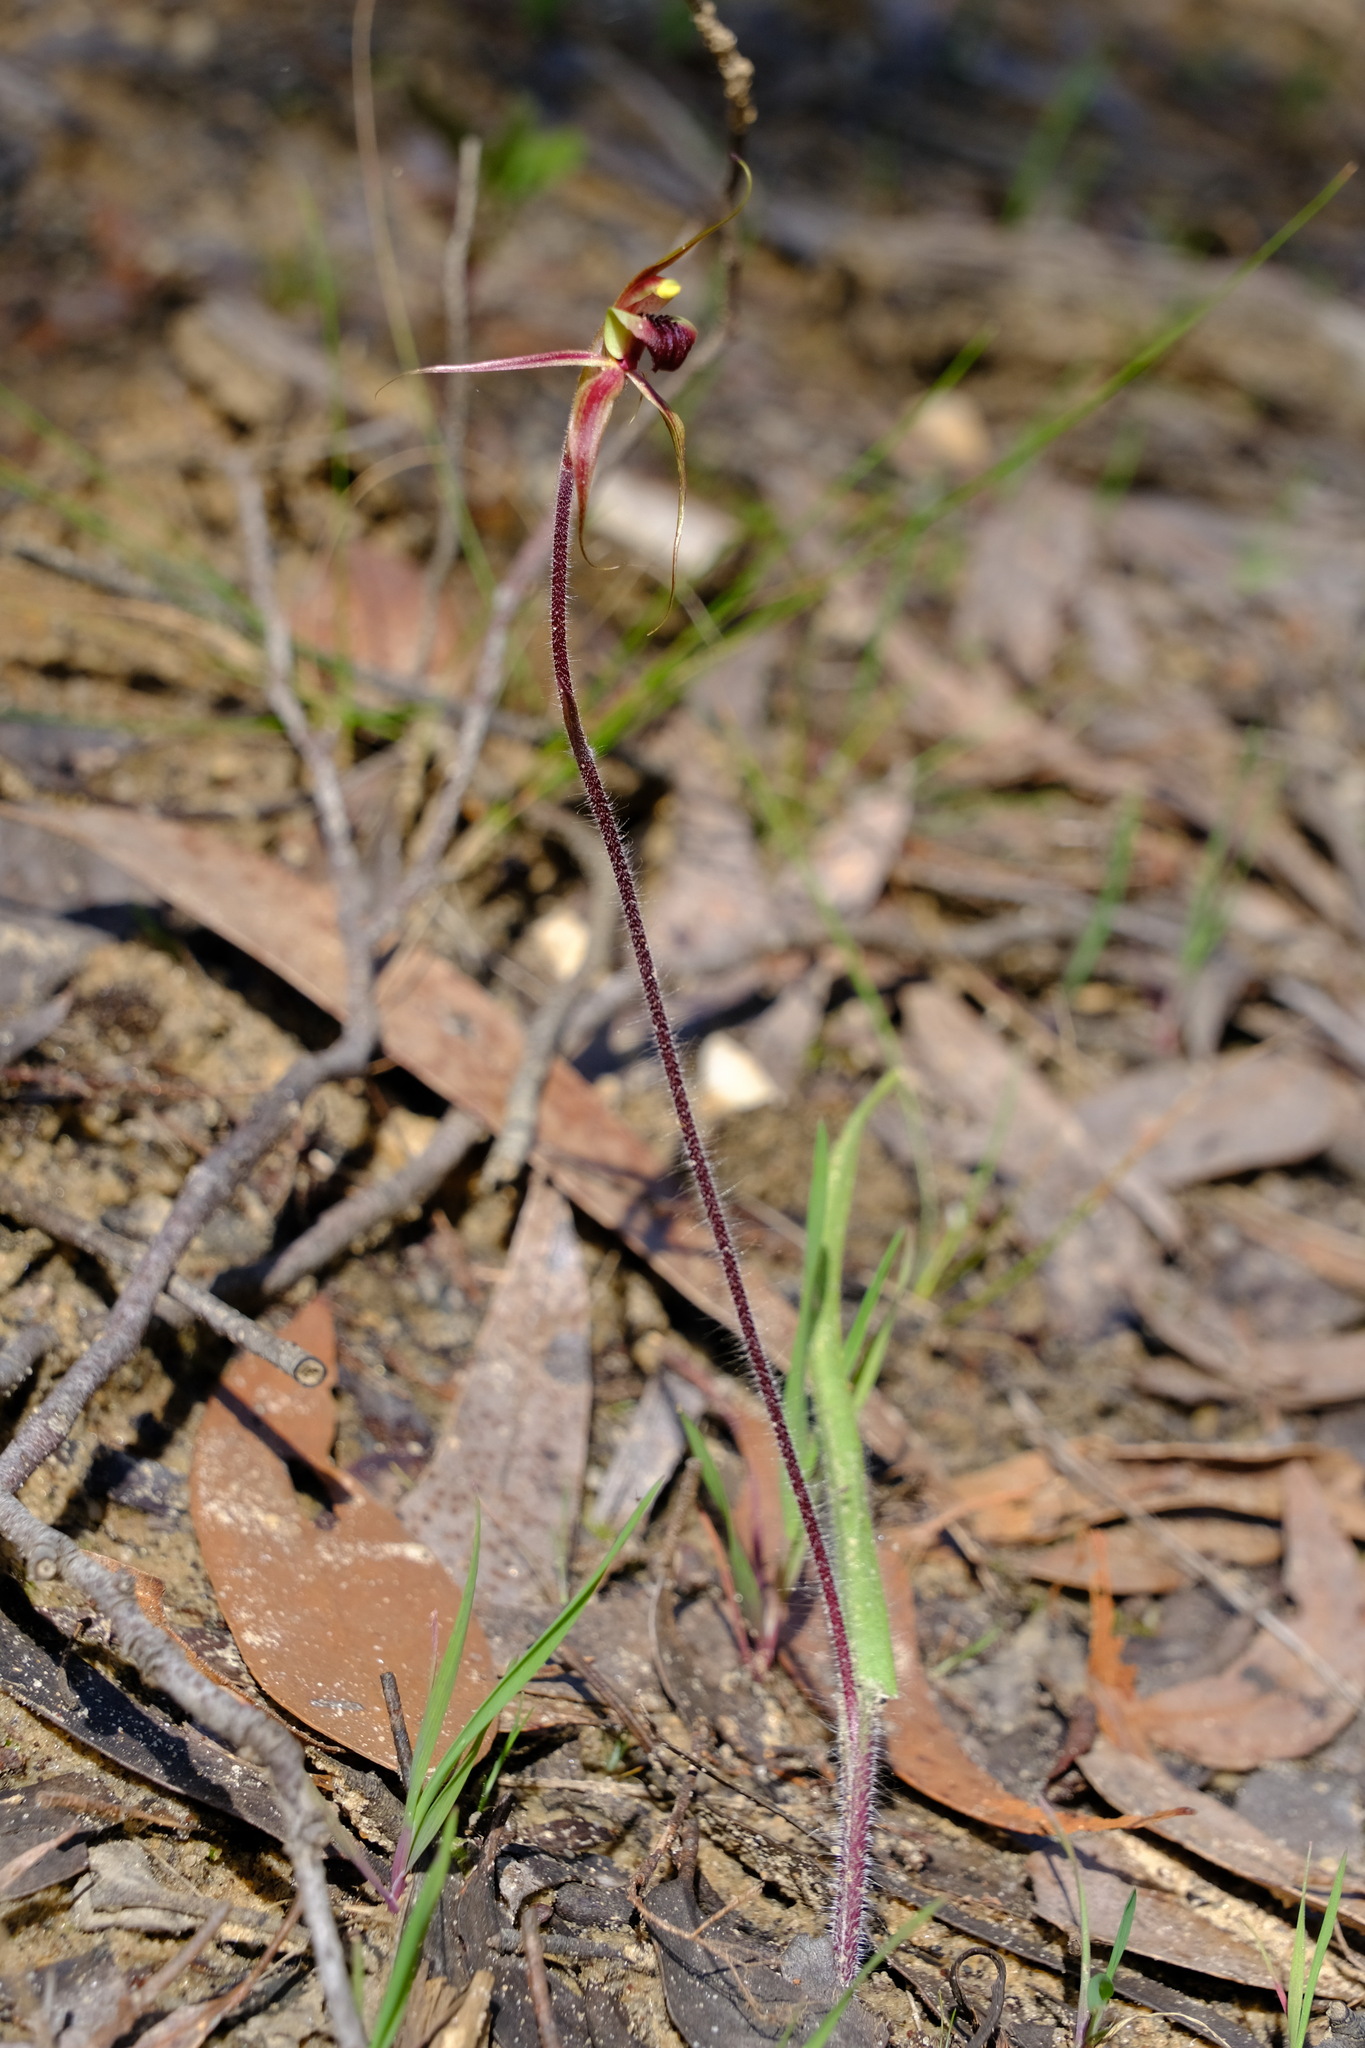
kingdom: Plantae
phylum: Tracheophyta
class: Liliopsida
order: Asparagales
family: Orchidaceae
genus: Caladenia
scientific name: Caladenia clavigera
